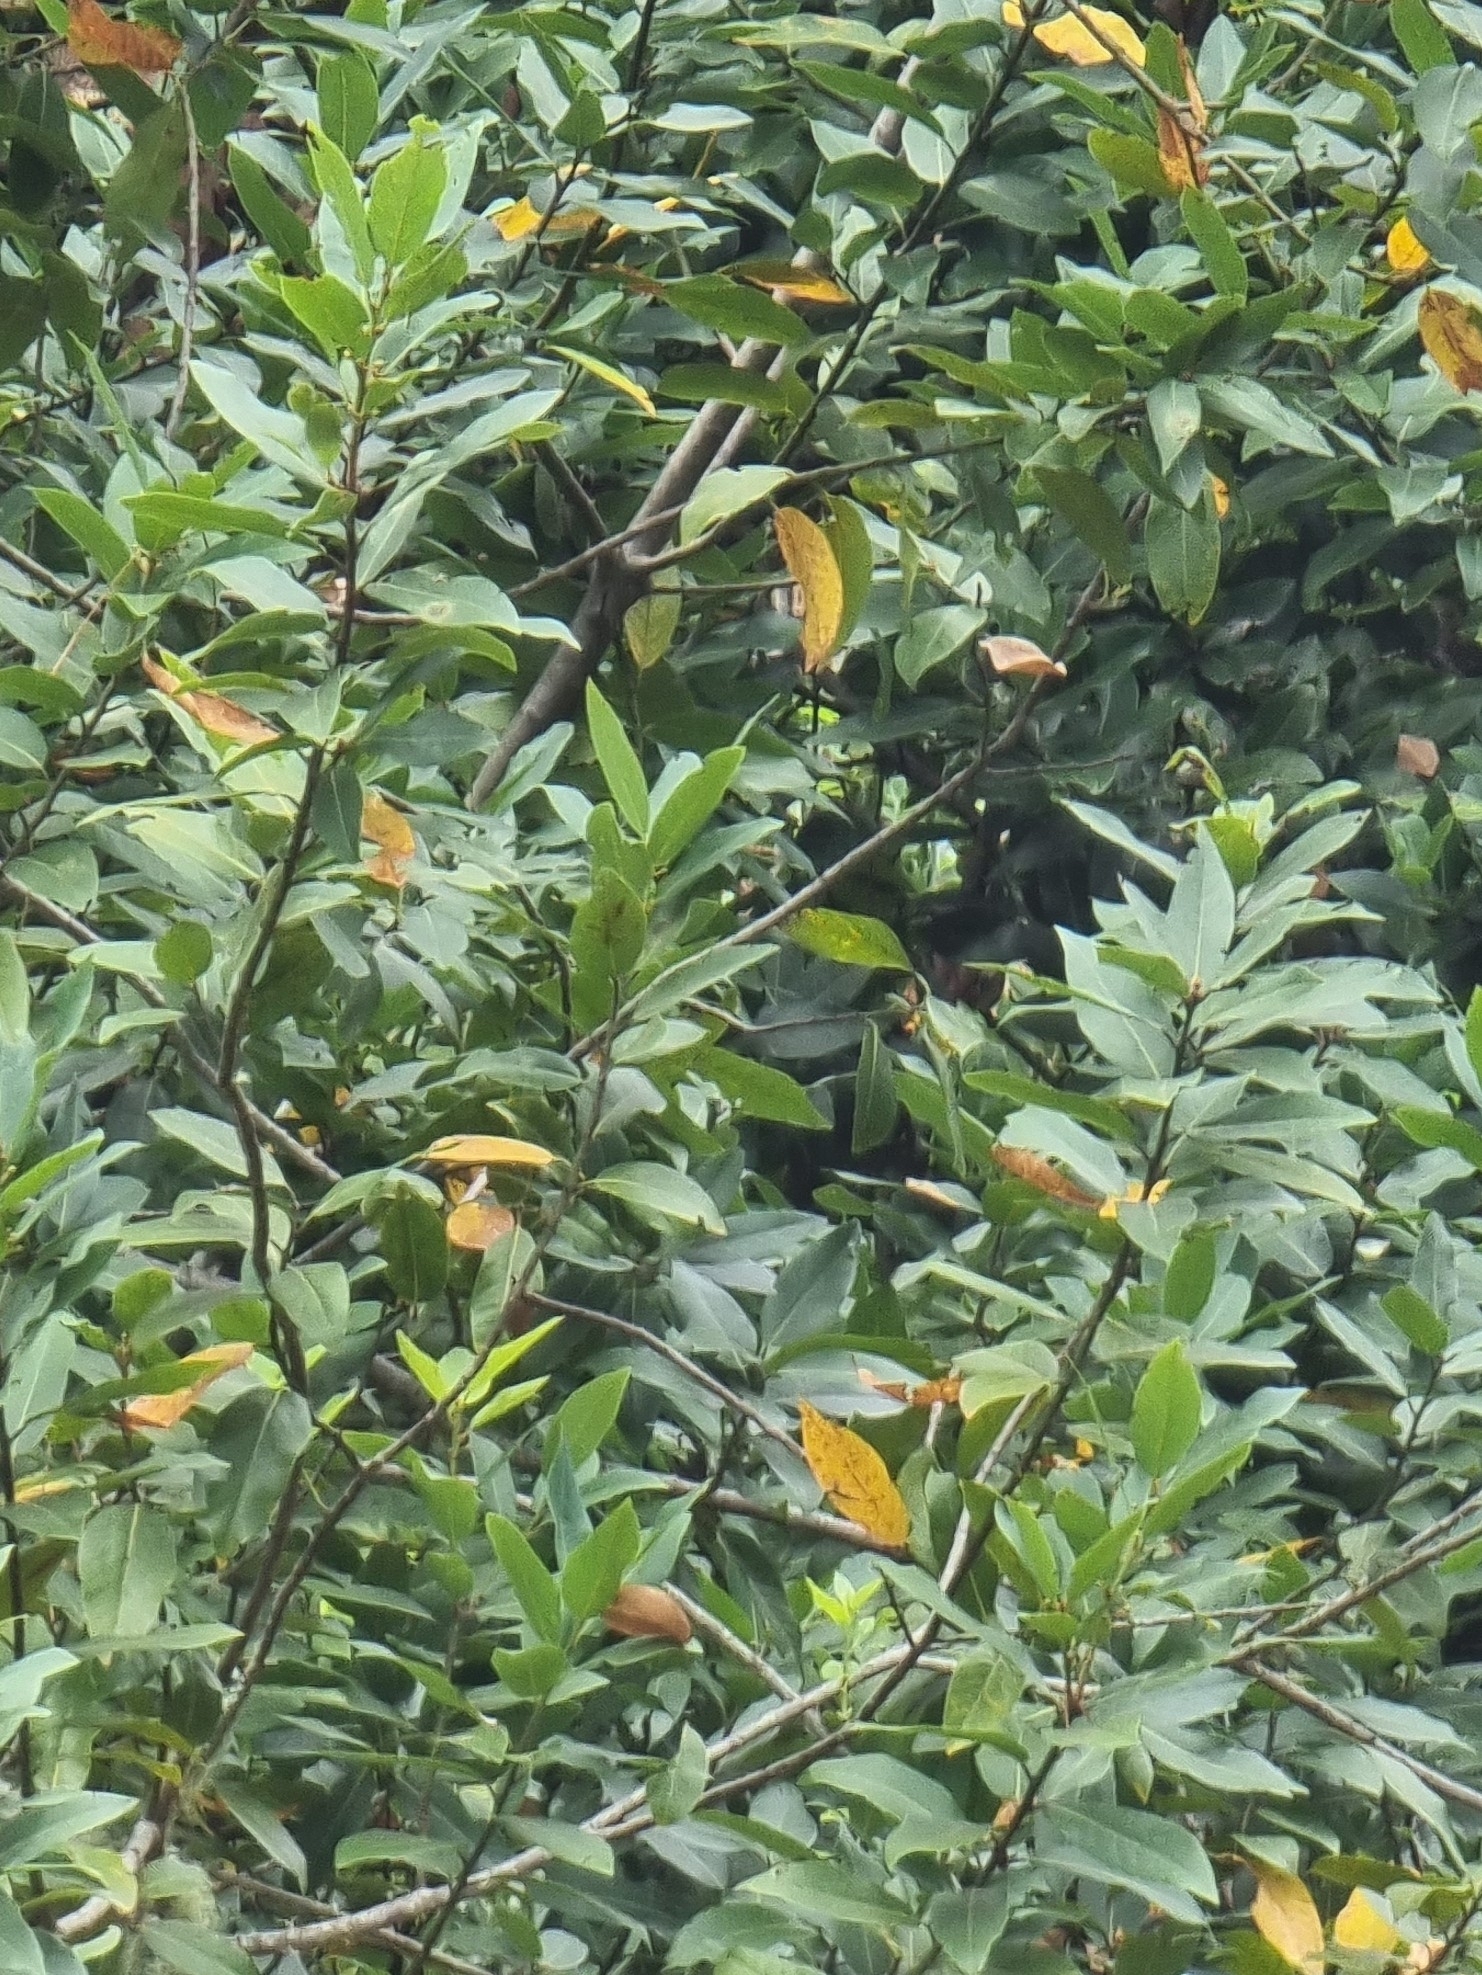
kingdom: Plantae
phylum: Tracheophyta
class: Magnoliopsida
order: Laurales
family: Lauraceae
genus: Laurus
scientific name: Laurus novocanariensis
